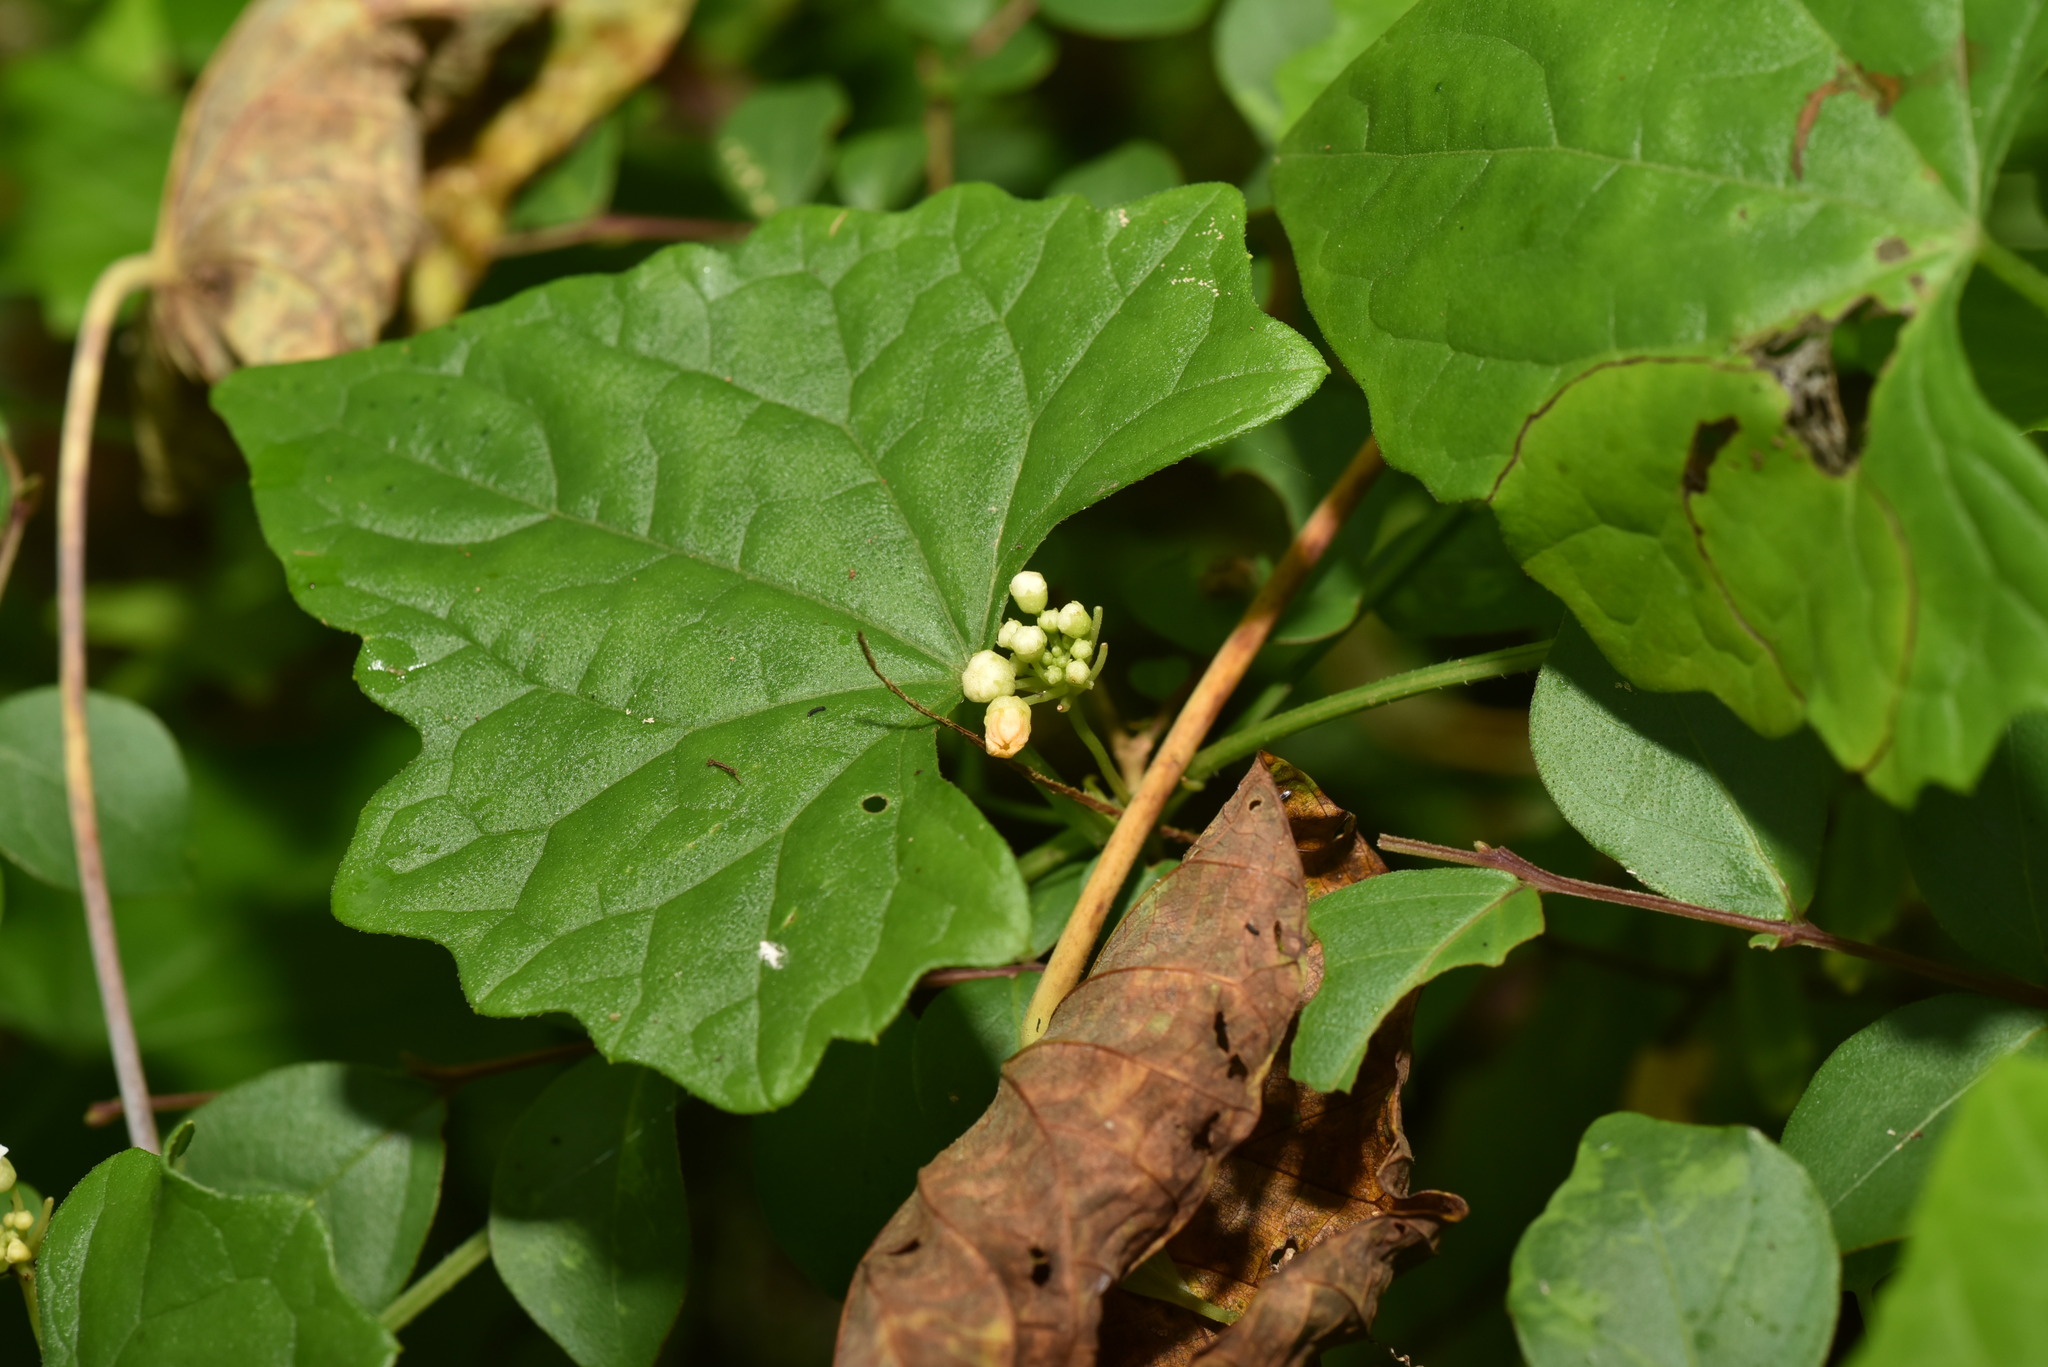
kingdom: Plantae
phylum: Tracheophyta
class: Magnoliopsida
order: Cucurbitales
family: Cucurbitaceae
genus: Zehneria
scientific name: Zehneria guamensis
